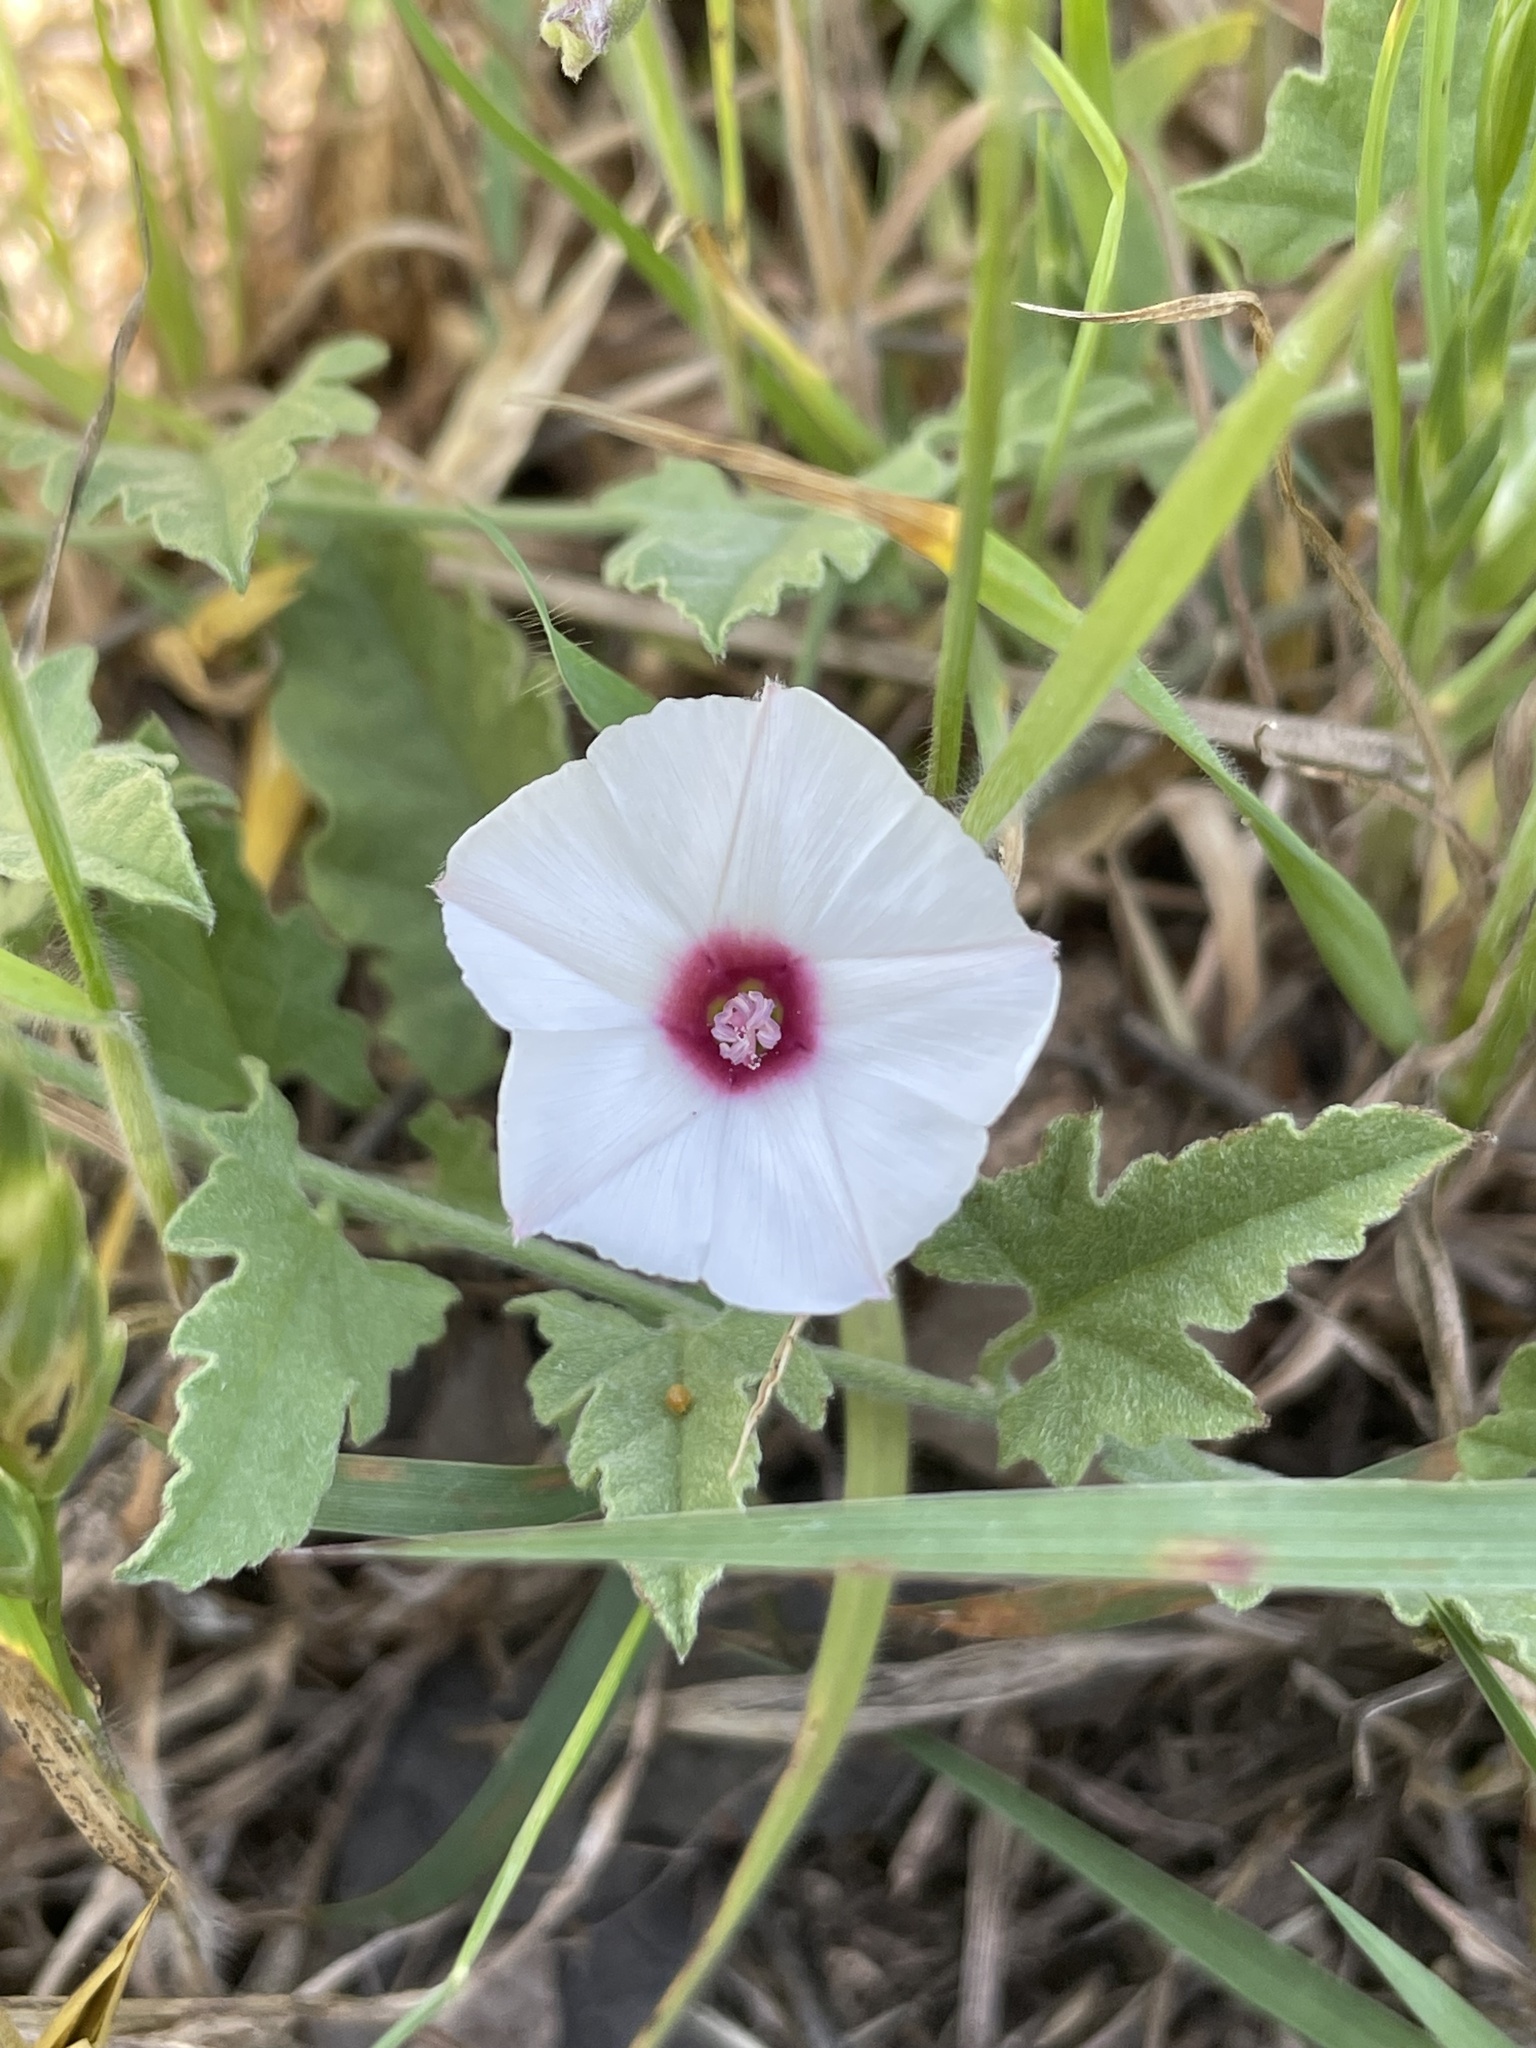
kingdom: Plantae
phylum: Tracheophyta
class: Magnoliopsida
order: Solanales
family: Convolvulaceae
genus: Convolvulus
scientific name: Convolvulus equitans
